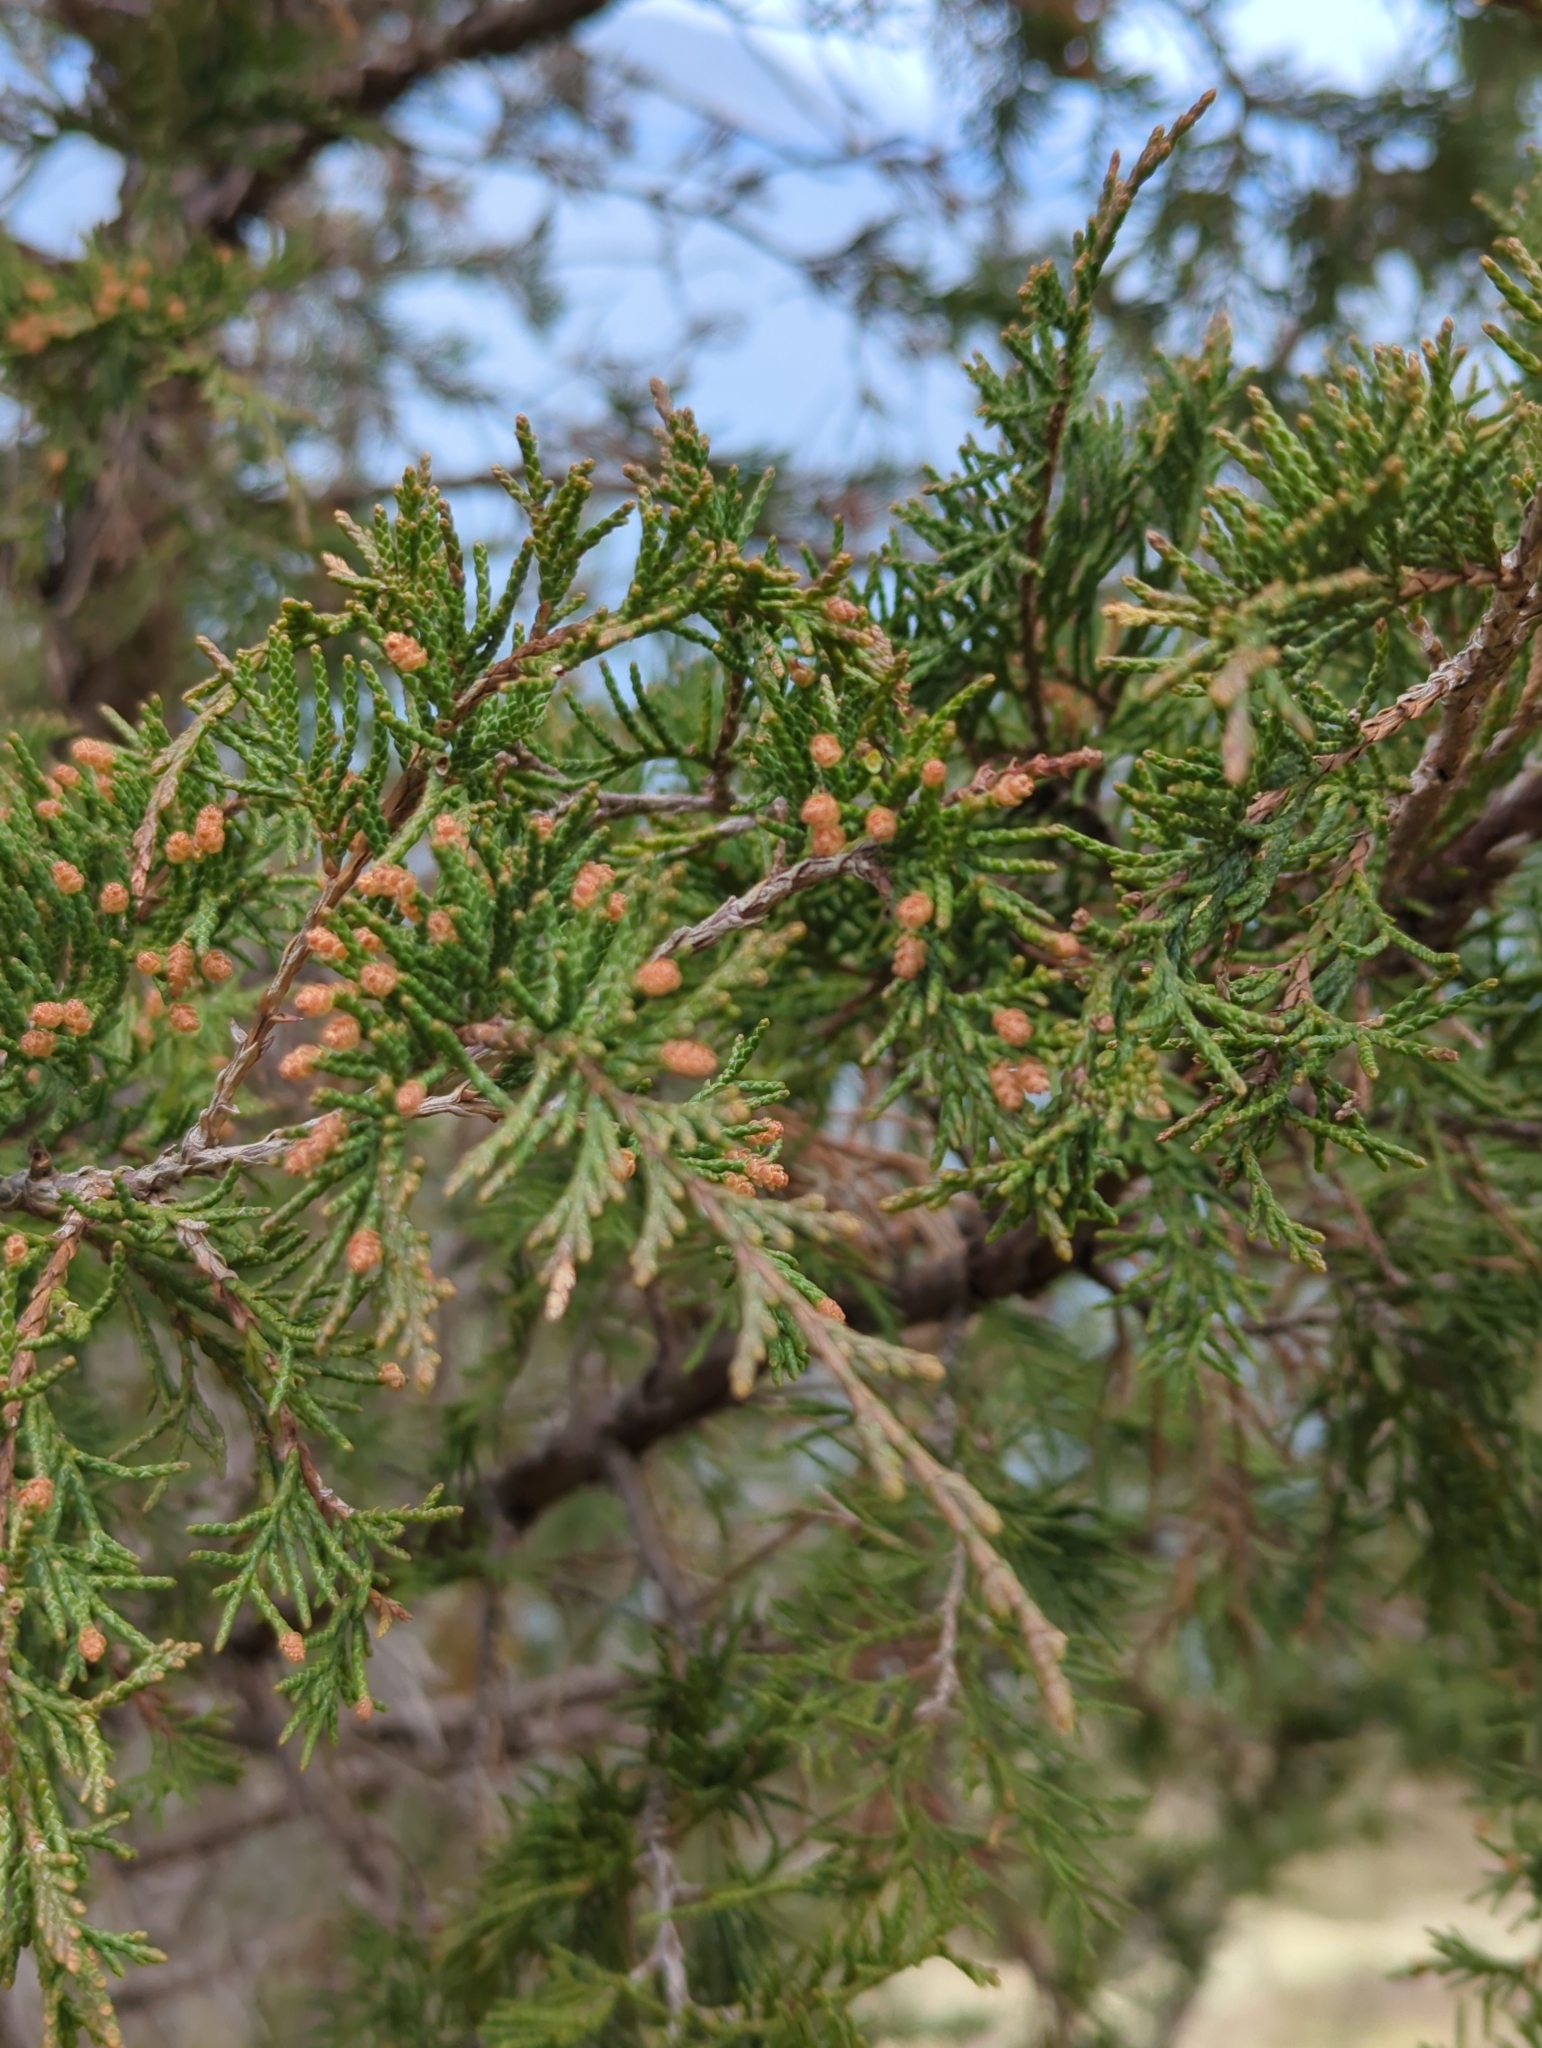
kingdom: Plantae
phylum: Tracheophyta
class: Pinopsida
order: Pinales
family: Cupressaceae
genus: Juniperus
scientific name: Juniperus scopulorum
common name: Rocky mountain juniper
